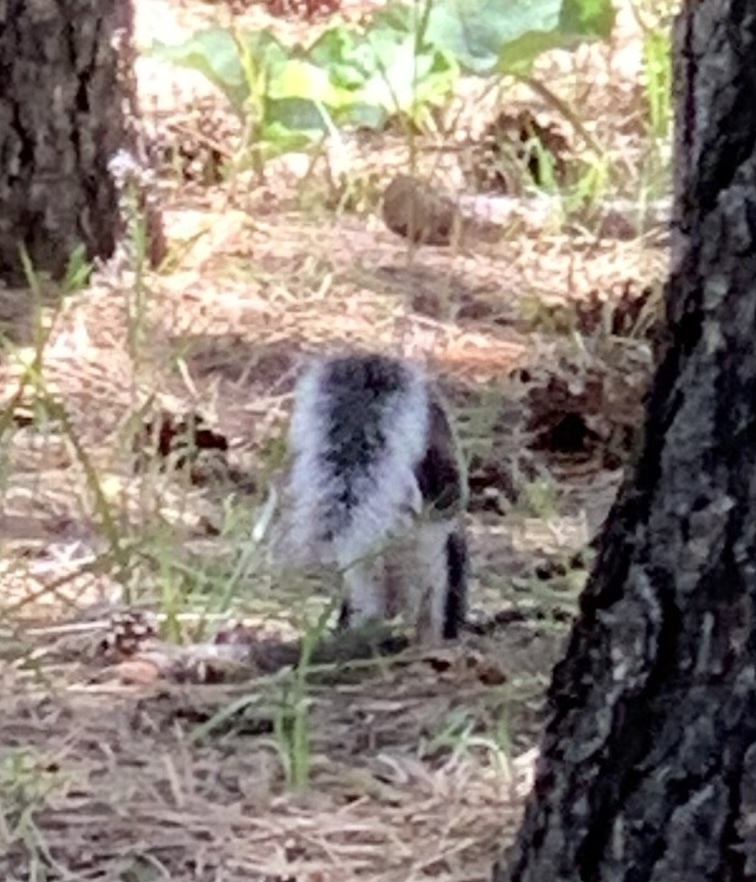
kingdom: Animalia
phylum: Chordata
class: Mammalia
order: Rodentia
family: Sciuridae
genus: Sciurus
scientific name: Sciurus aberti
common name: Abert's squirrel
